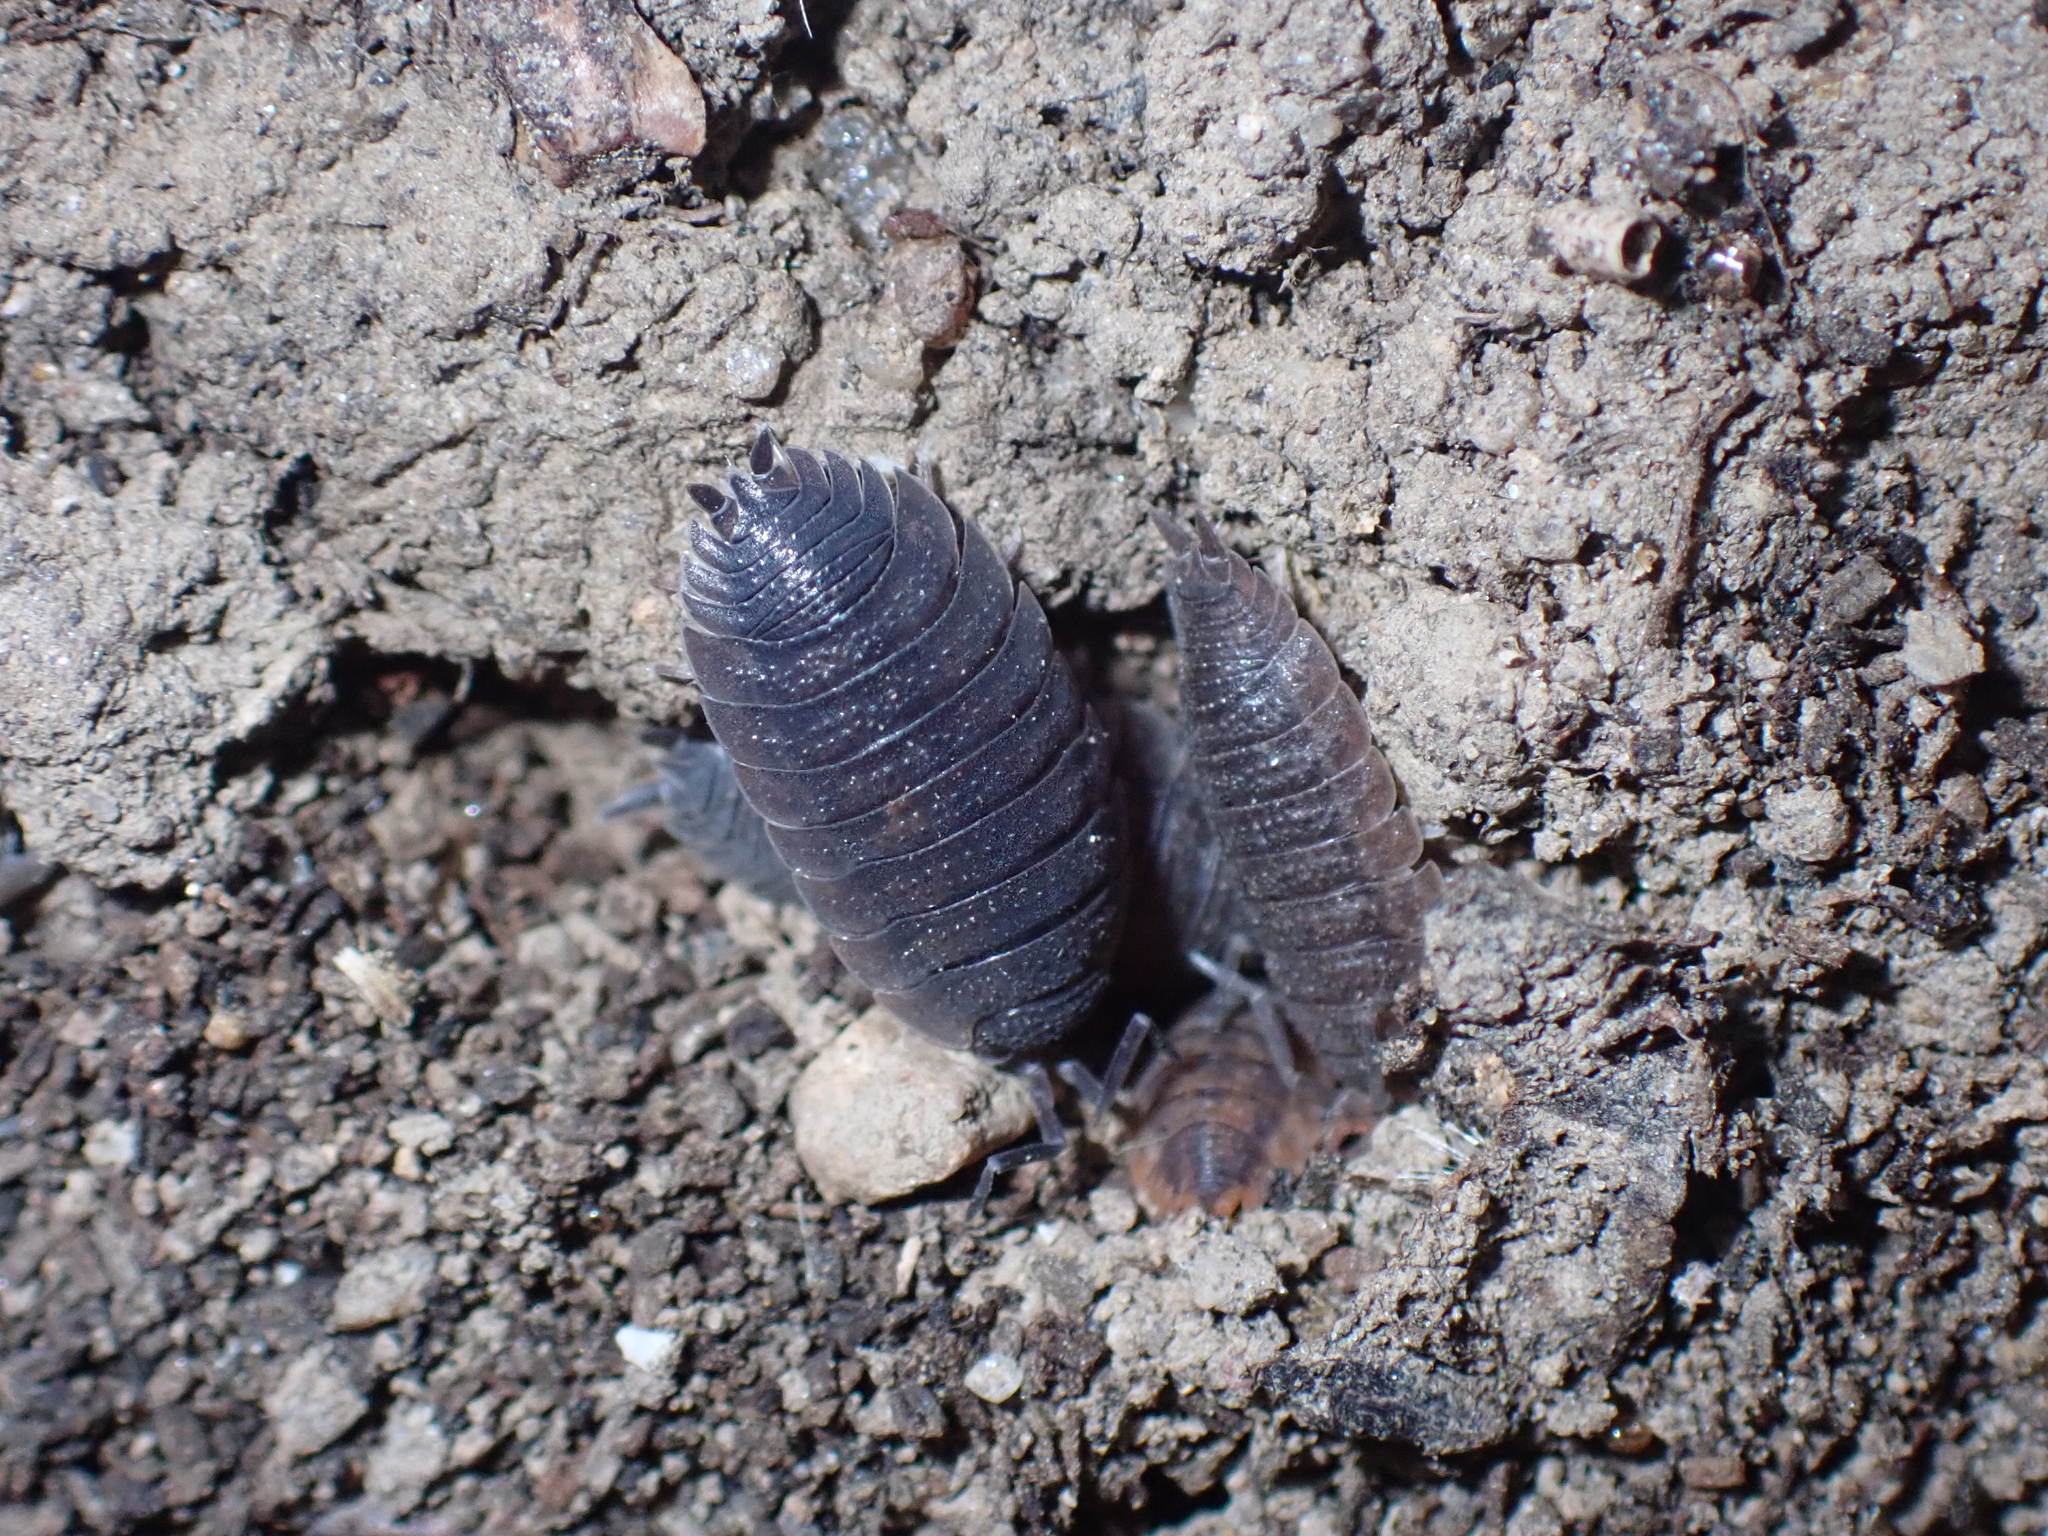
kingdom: Animalia
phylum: Arthropoda
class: Malacostraca
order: Isopoda
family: Porcellionidae
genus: Porcellio
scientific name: Porcellio scaber
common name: Common rough woodlouse
